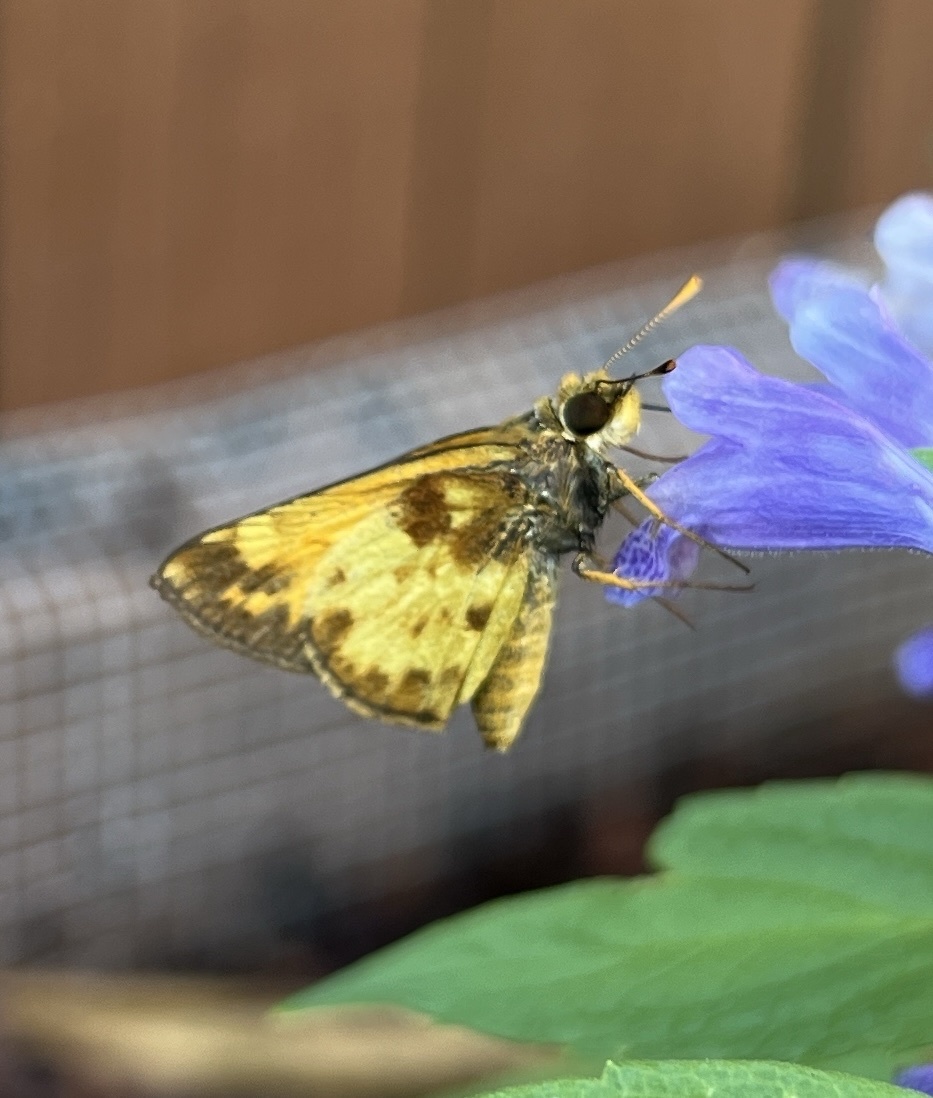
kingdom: Animalia
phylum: Arthropoda
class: Insecta
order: Lepidoptera
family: Hesperiidae
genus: Lon
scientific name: Lon zabulon
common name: Zabulon skipper
